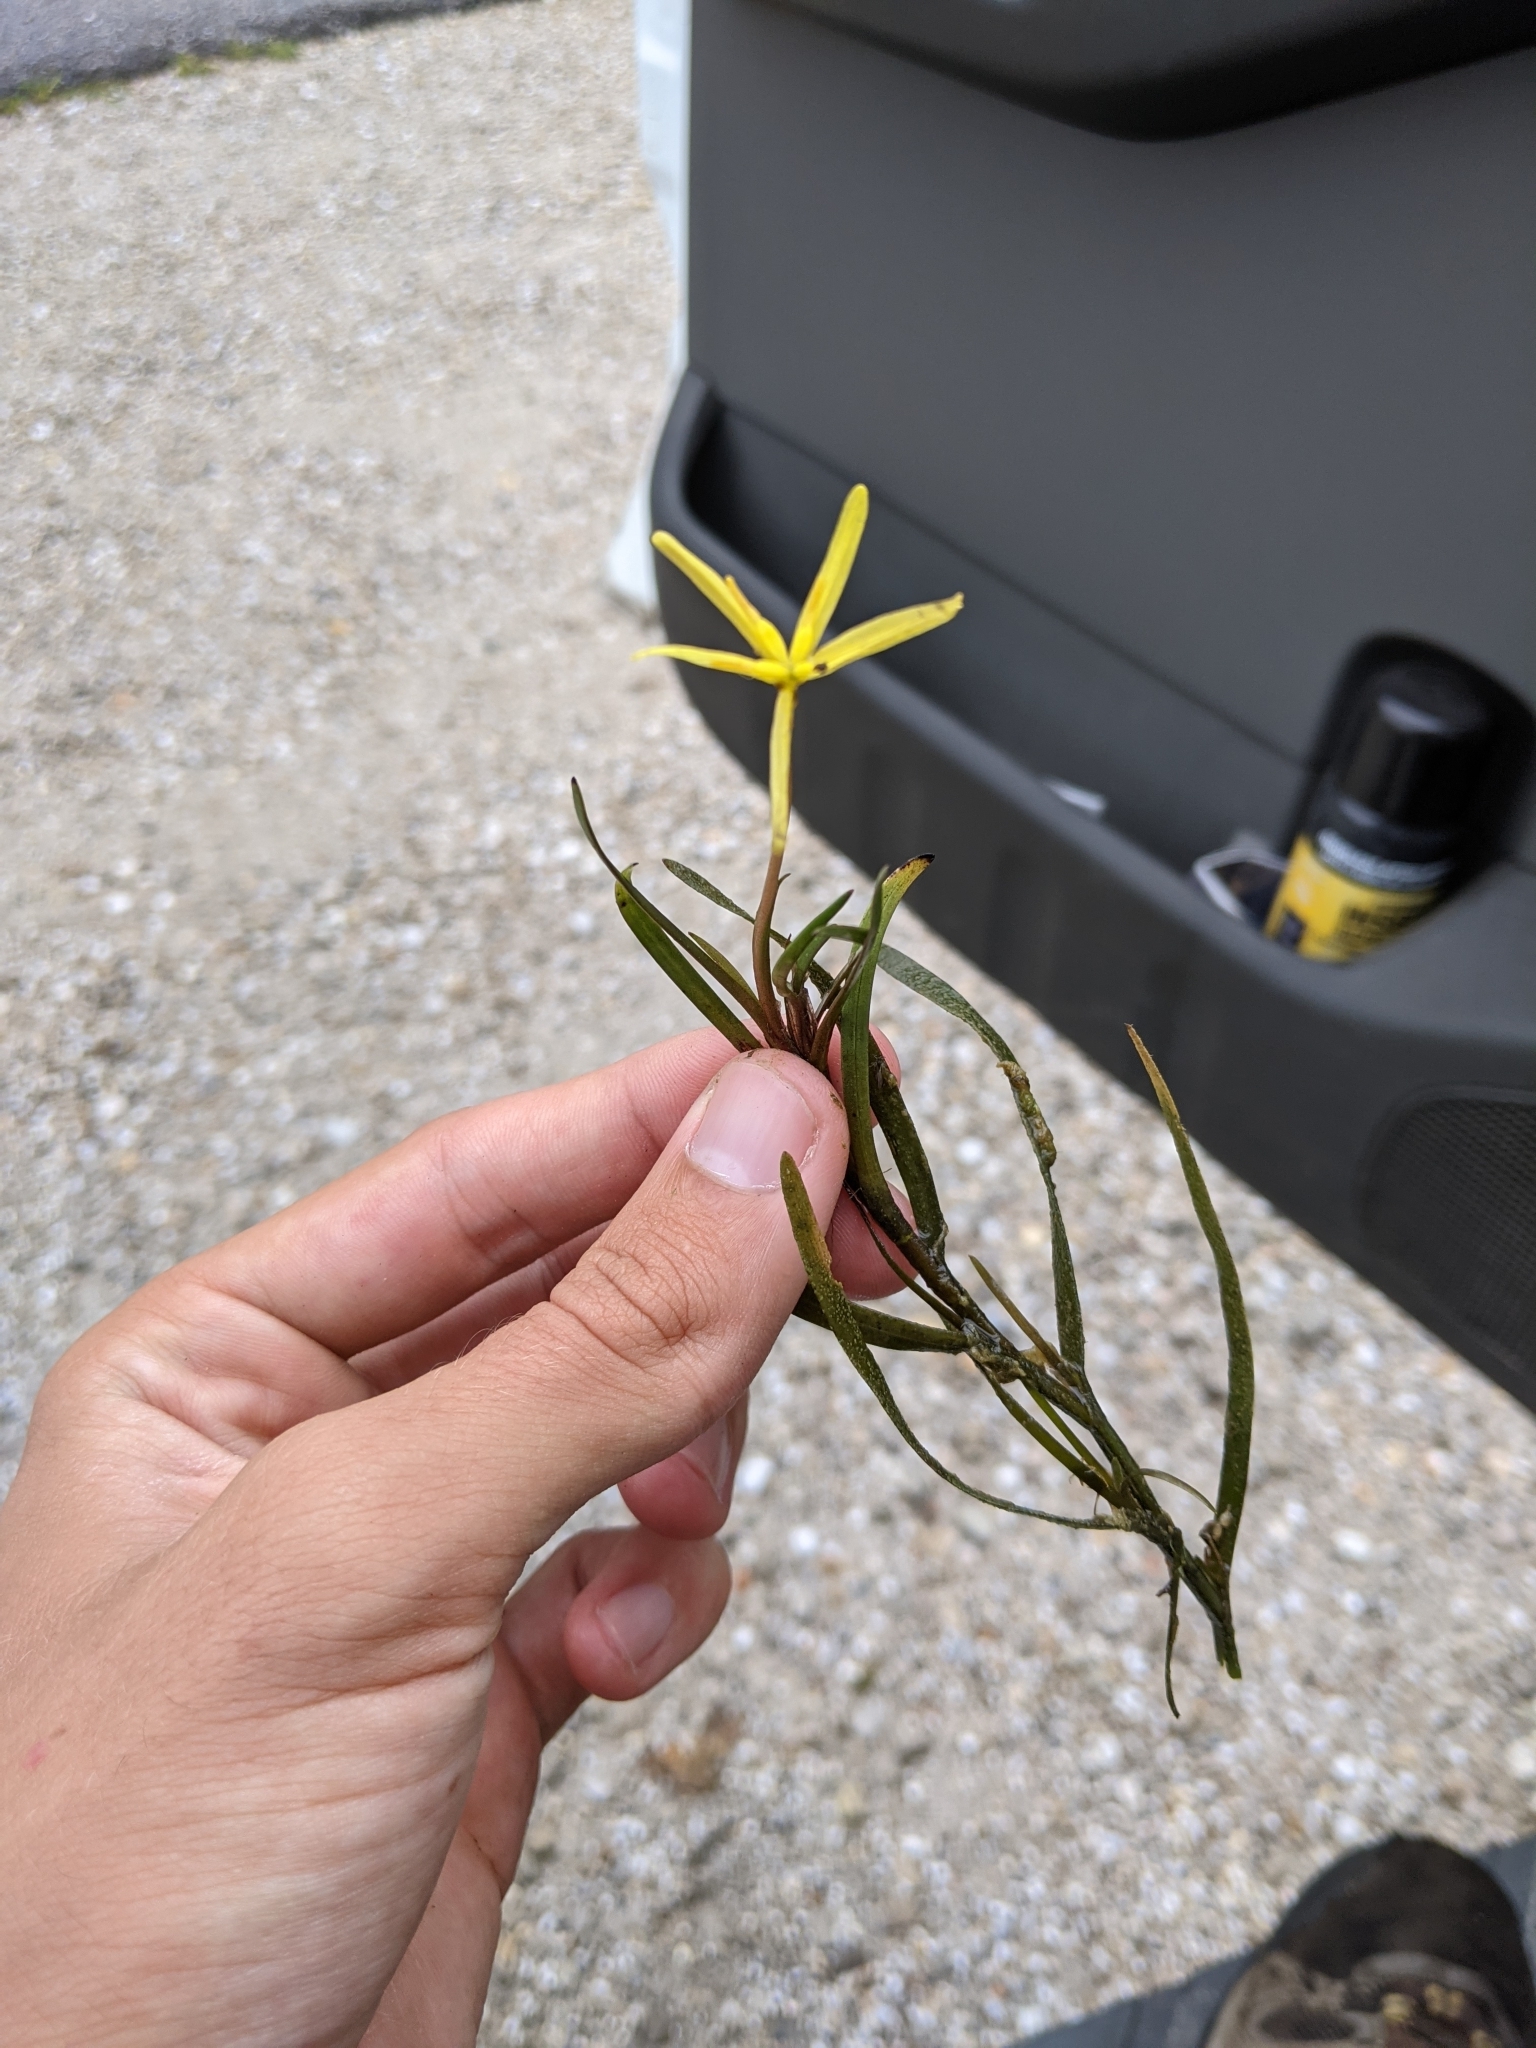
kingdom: Plantae
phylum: Tracheophyta
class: Liliopsida
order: Commelinales
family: Pontederiaceae
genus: Heteranthera
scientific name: Heteranthera dubia
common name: Grass-leaved mud plantain
